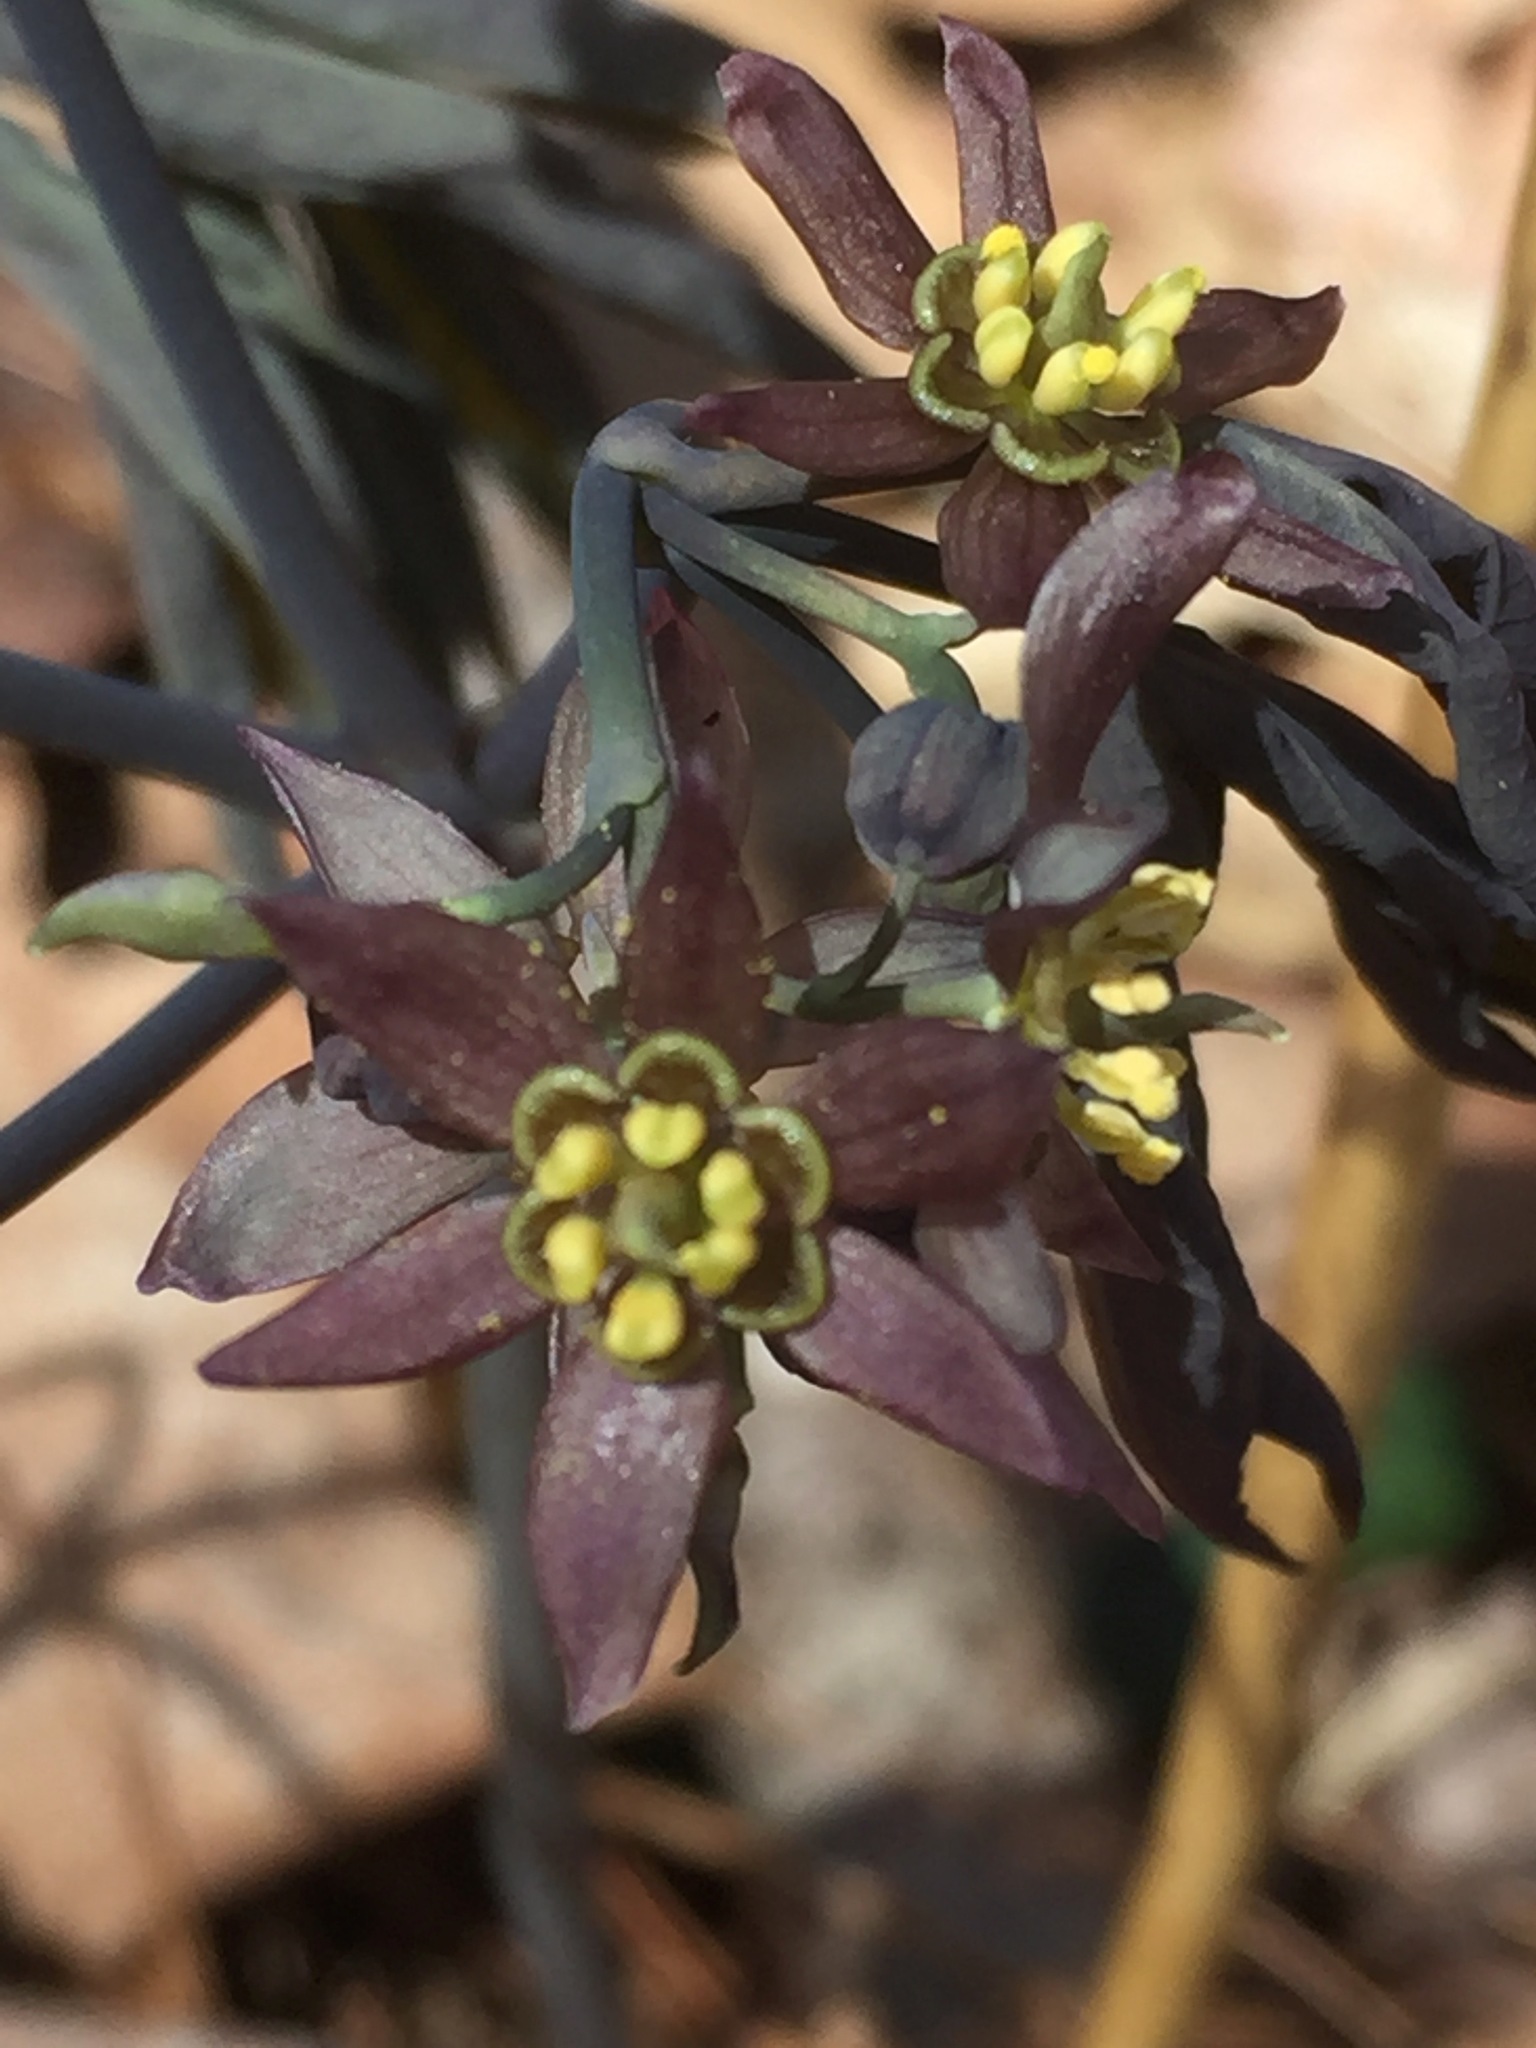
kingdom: Plantae
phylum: Tracheophyta
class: Magnoliopsida
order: Ranunculales
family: Berberidaceae
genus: Caulophyllum
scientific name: Caulophyllum giganteum
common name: Blue cohosh
